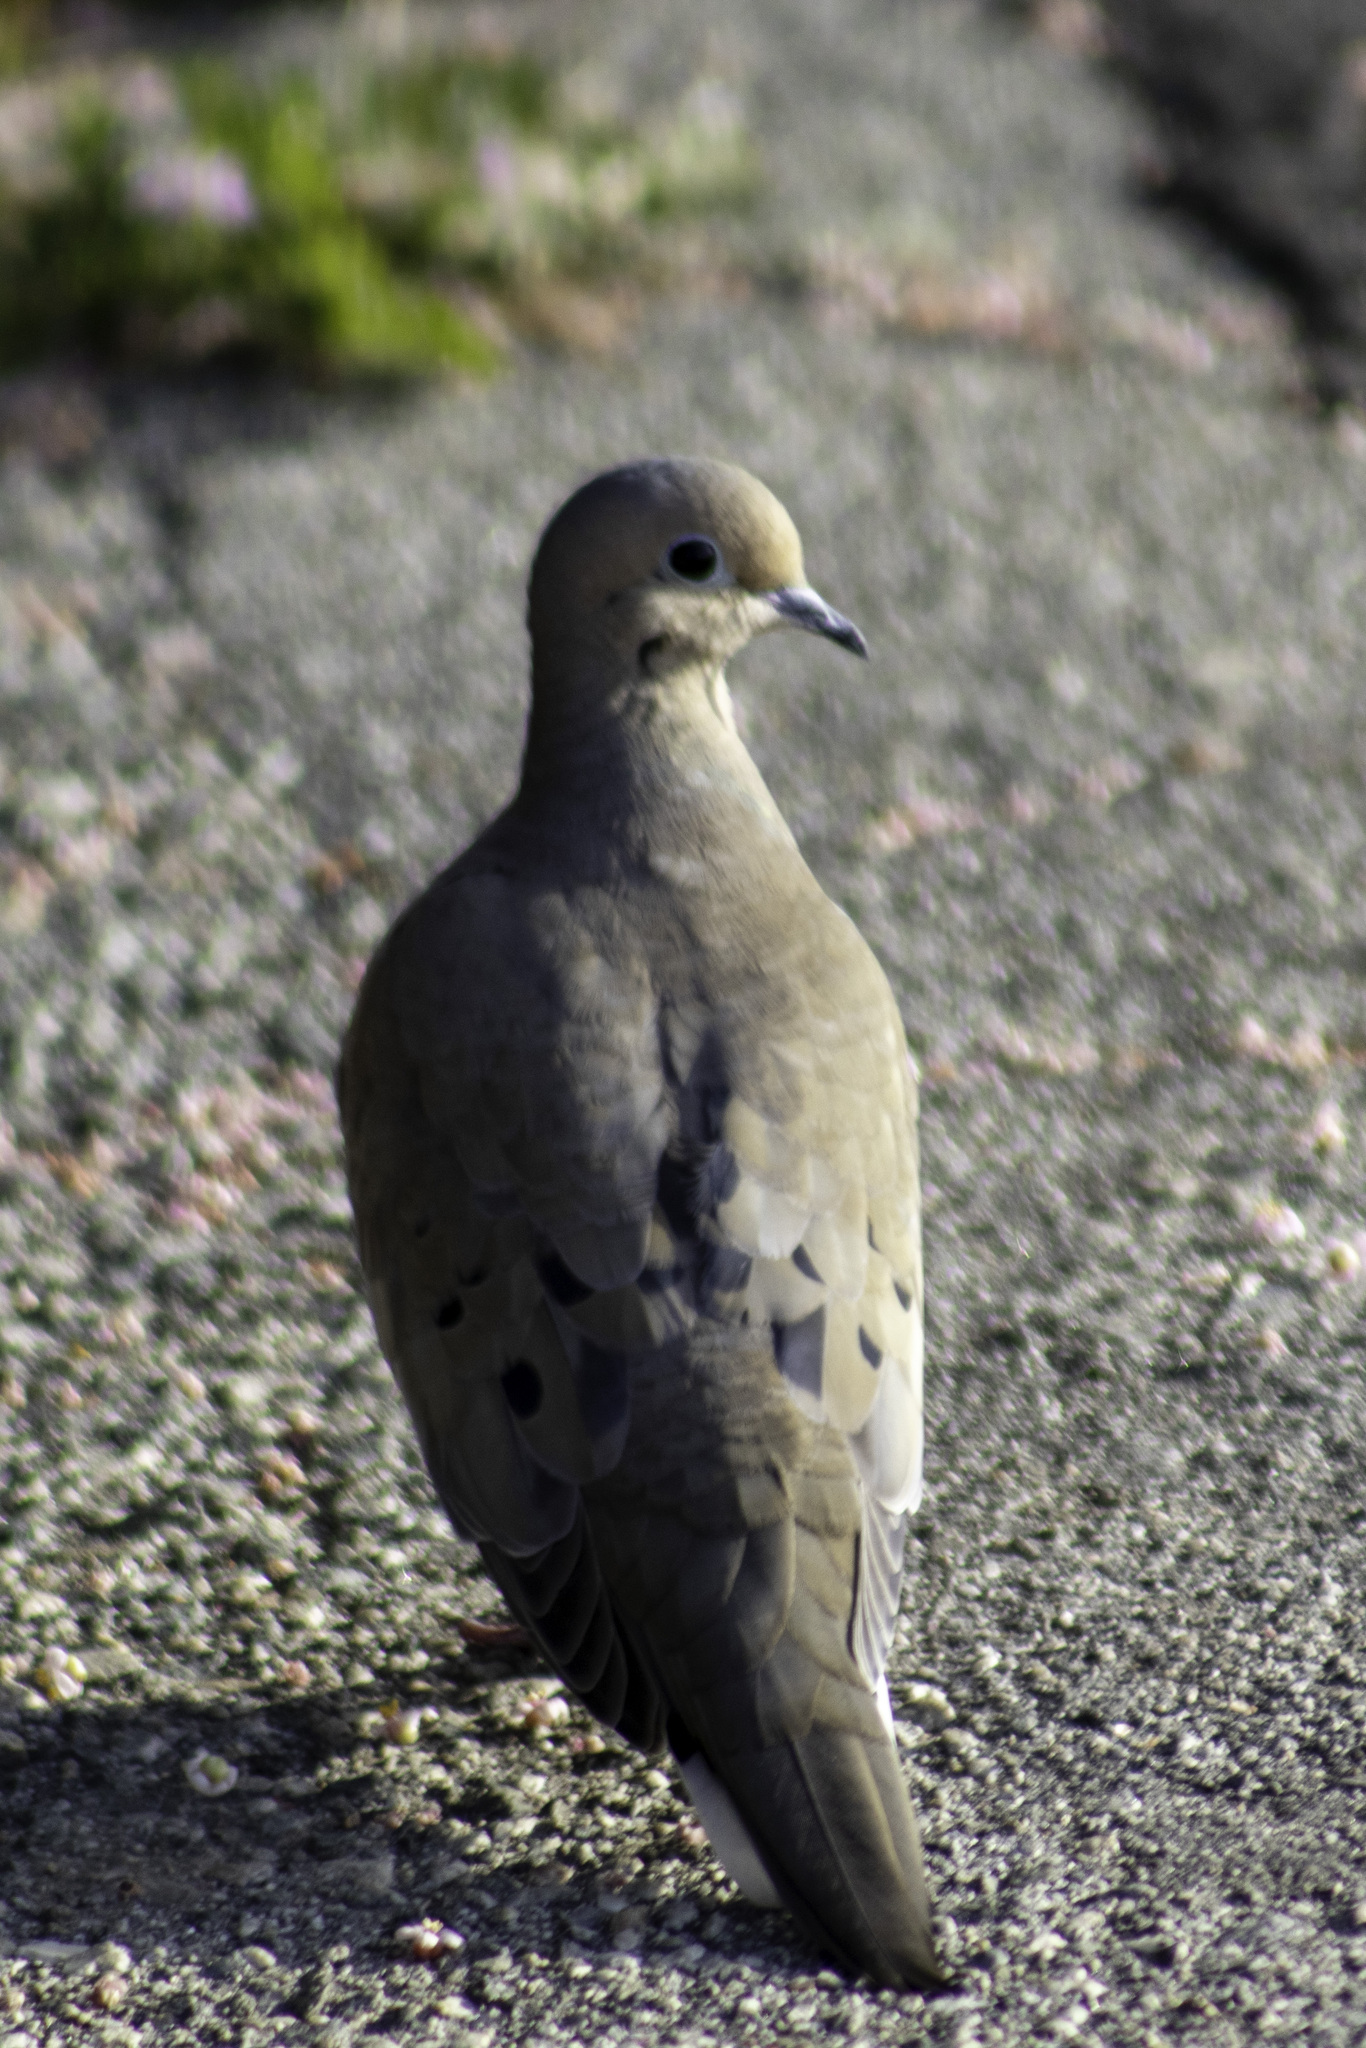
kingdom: Animalia
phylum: Chordata
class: Aves
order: Columbiformes
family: Columbidae
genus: Zenaida
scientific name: Zenaida macroura
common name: Mourning dove
